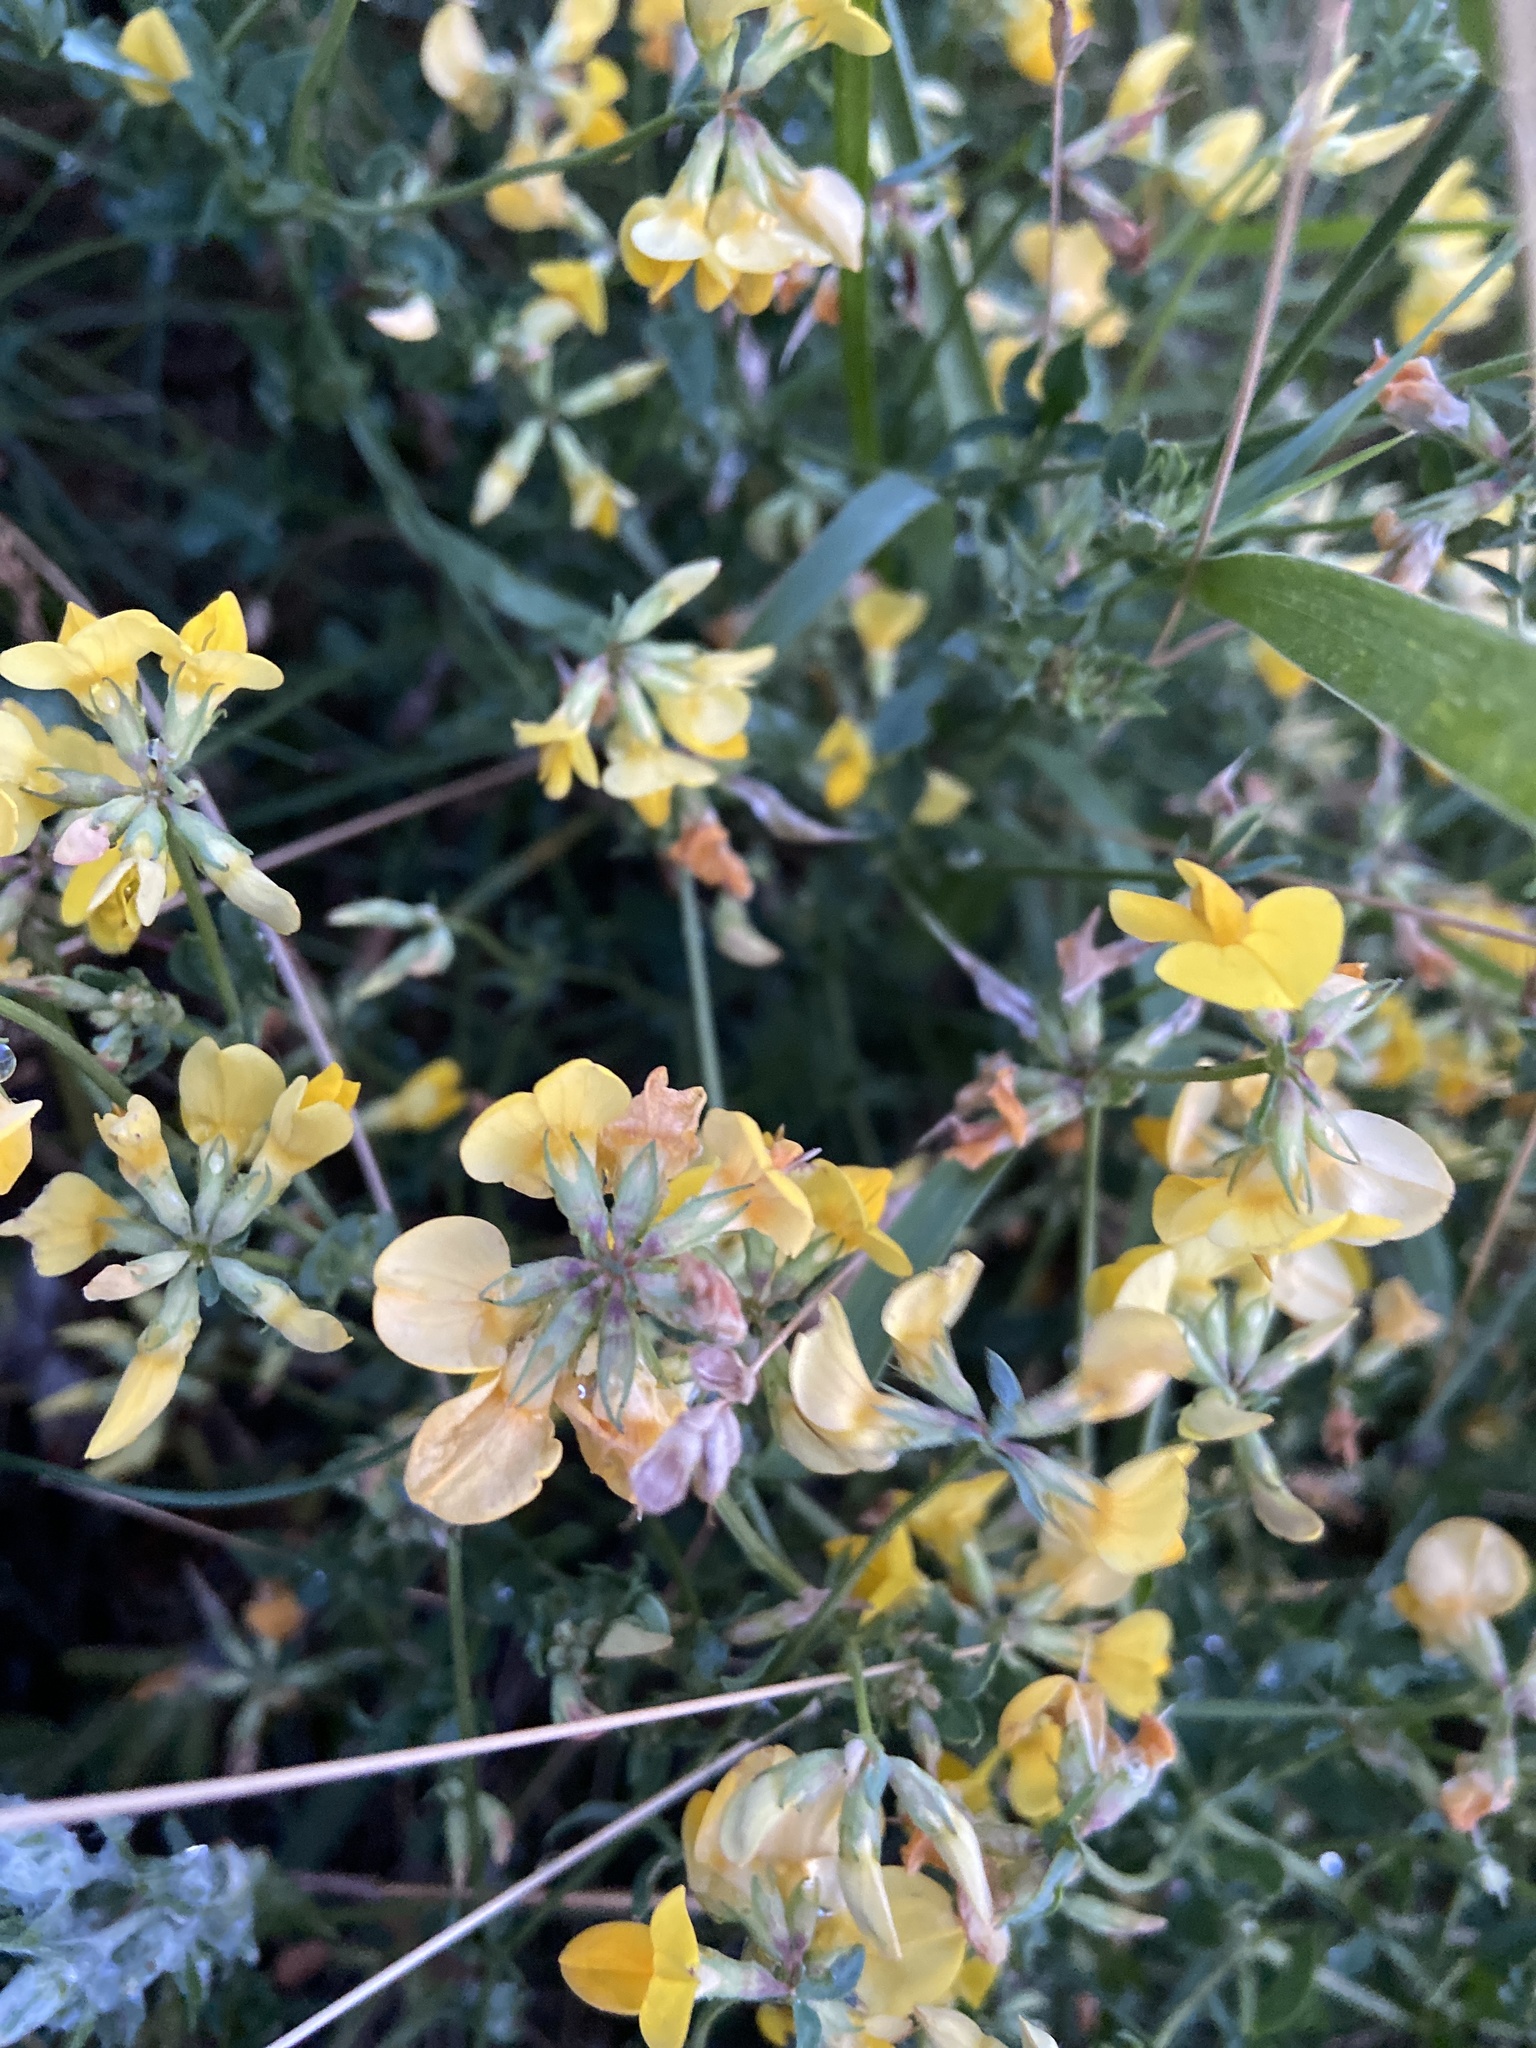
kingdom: Plantae
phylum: Tracheophyta
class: Magnoliopsida
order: Fabales
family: Fabaceae
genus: Lotus
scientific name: Lotus corniculatus
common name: Common bird's-foot-trefoil
